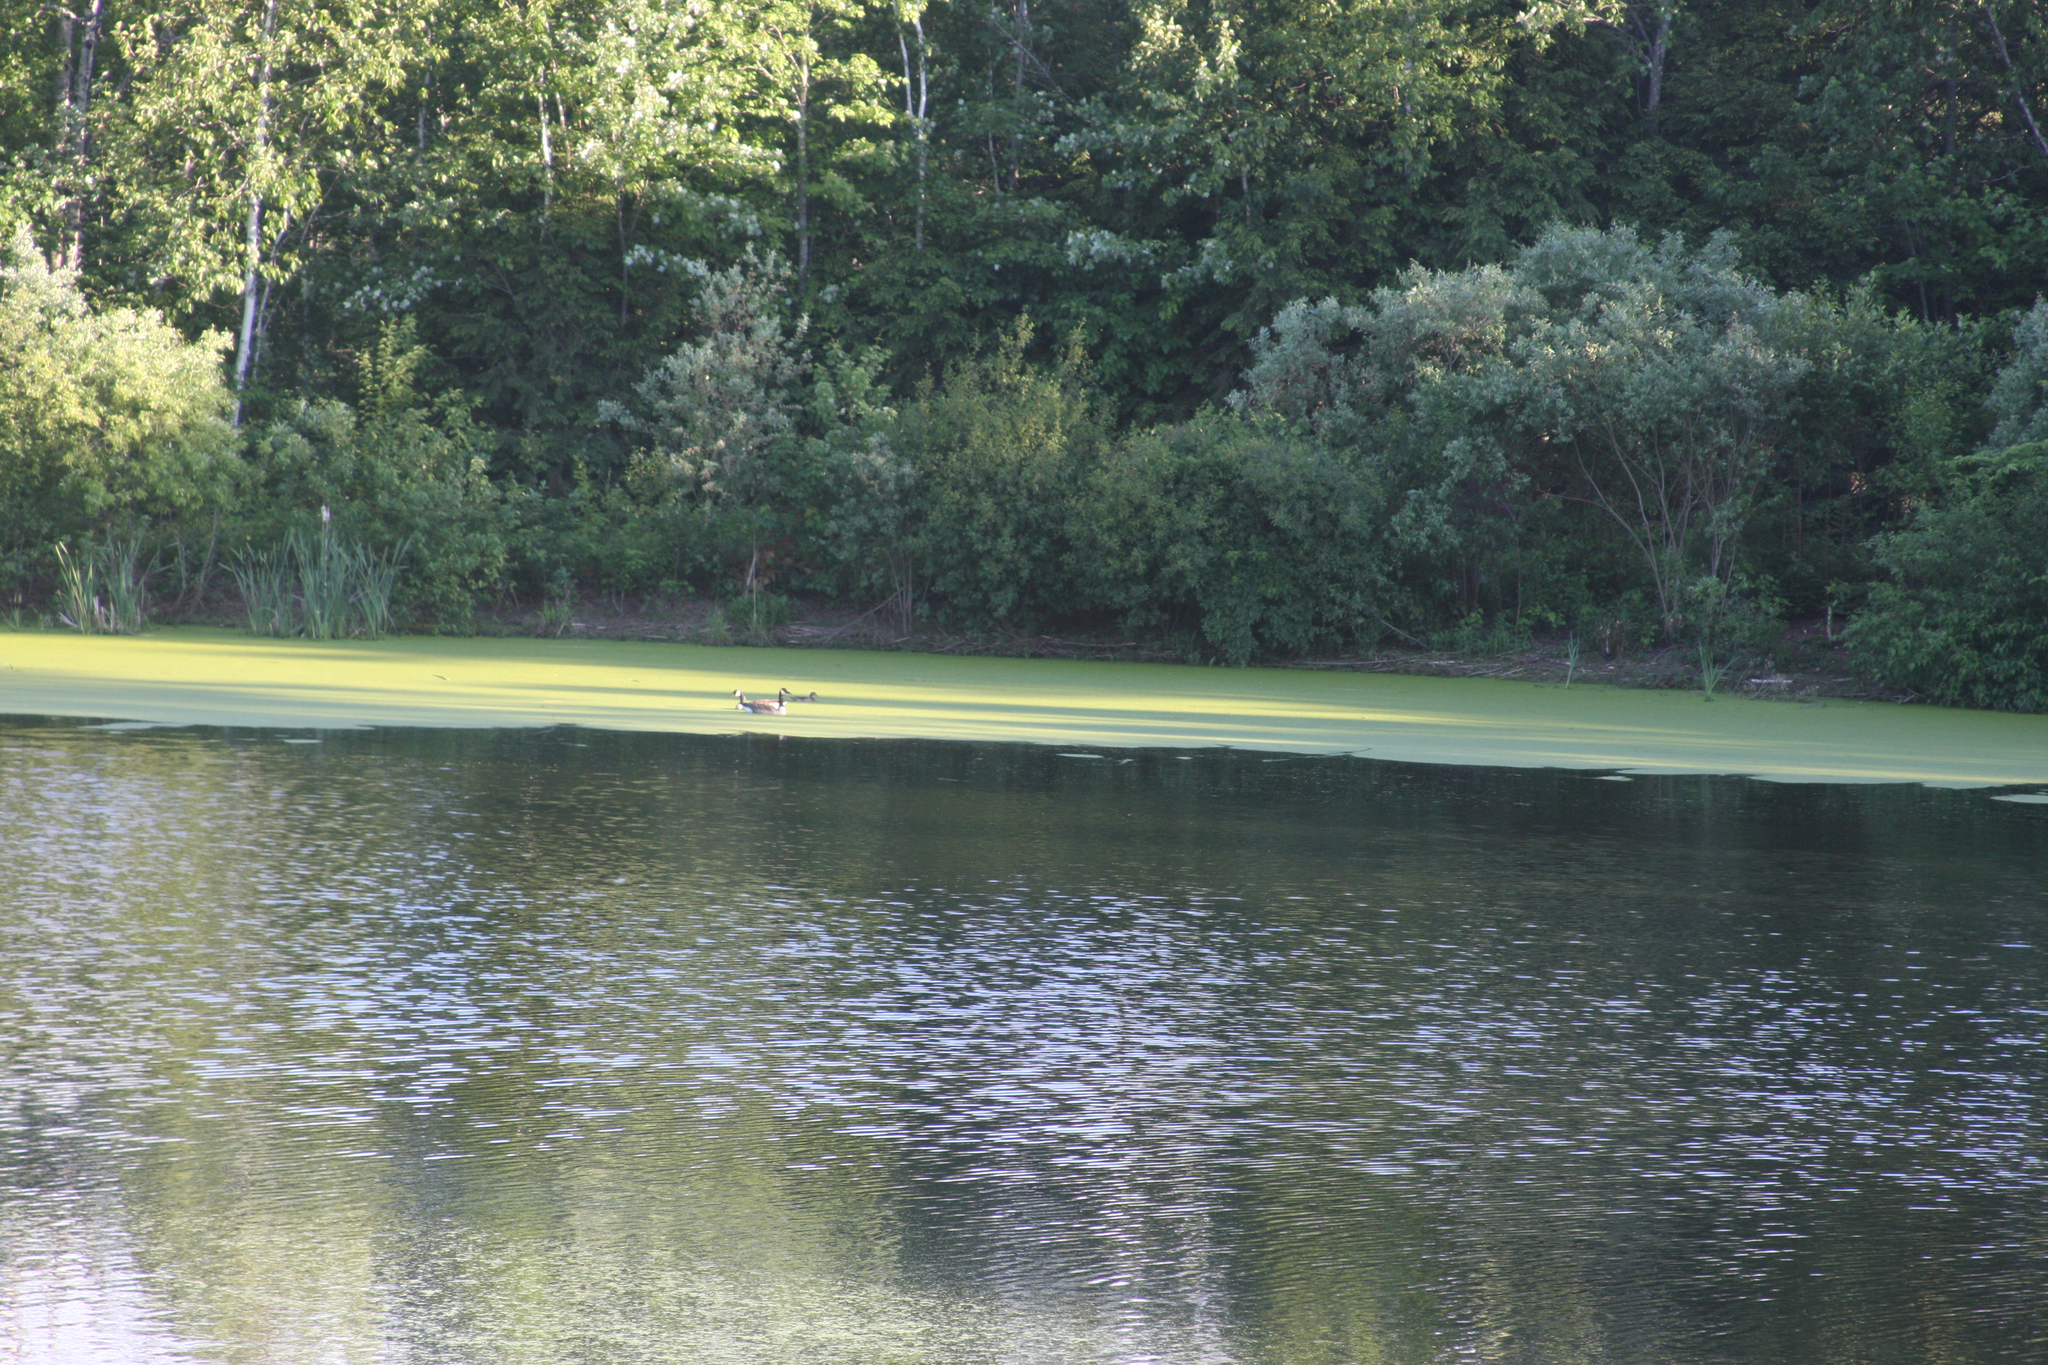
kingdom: Animalia
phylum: Chordata
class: Aves
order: Anseriformes
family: Anatidae
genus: Branta
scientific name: Branta canadensis
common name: Canada goose
